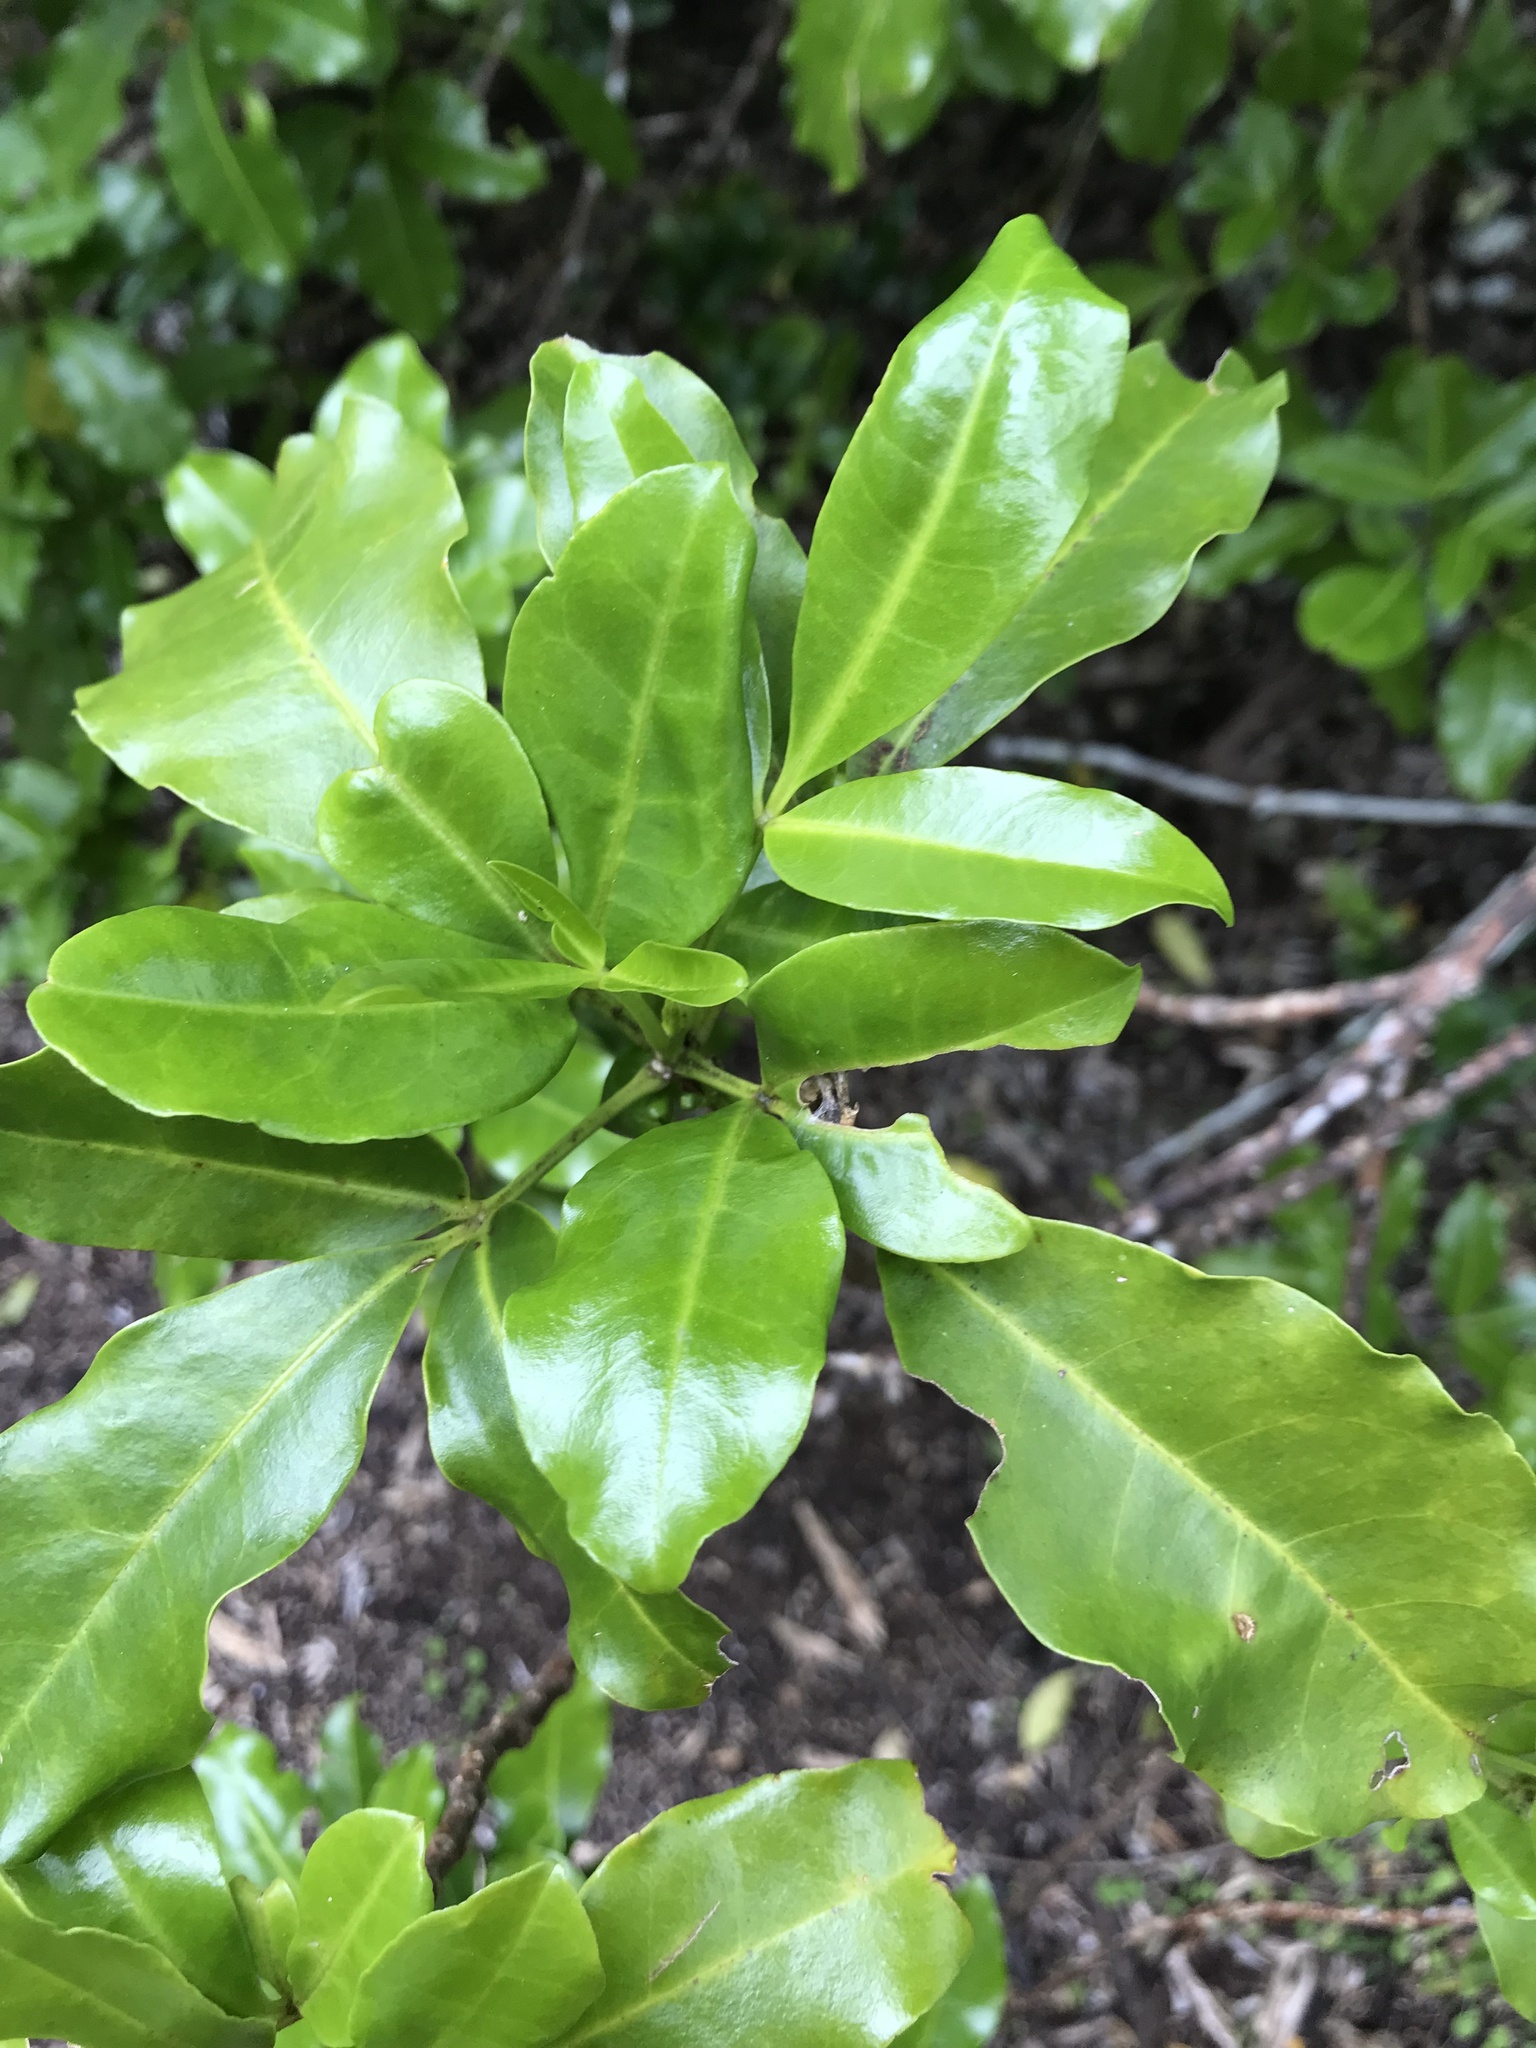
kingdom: Plantae
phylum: Tracheophyta
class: Magnoliopsida
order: Sapindales
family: Rutaceae
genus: Melicope
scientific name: Melicope ternata
